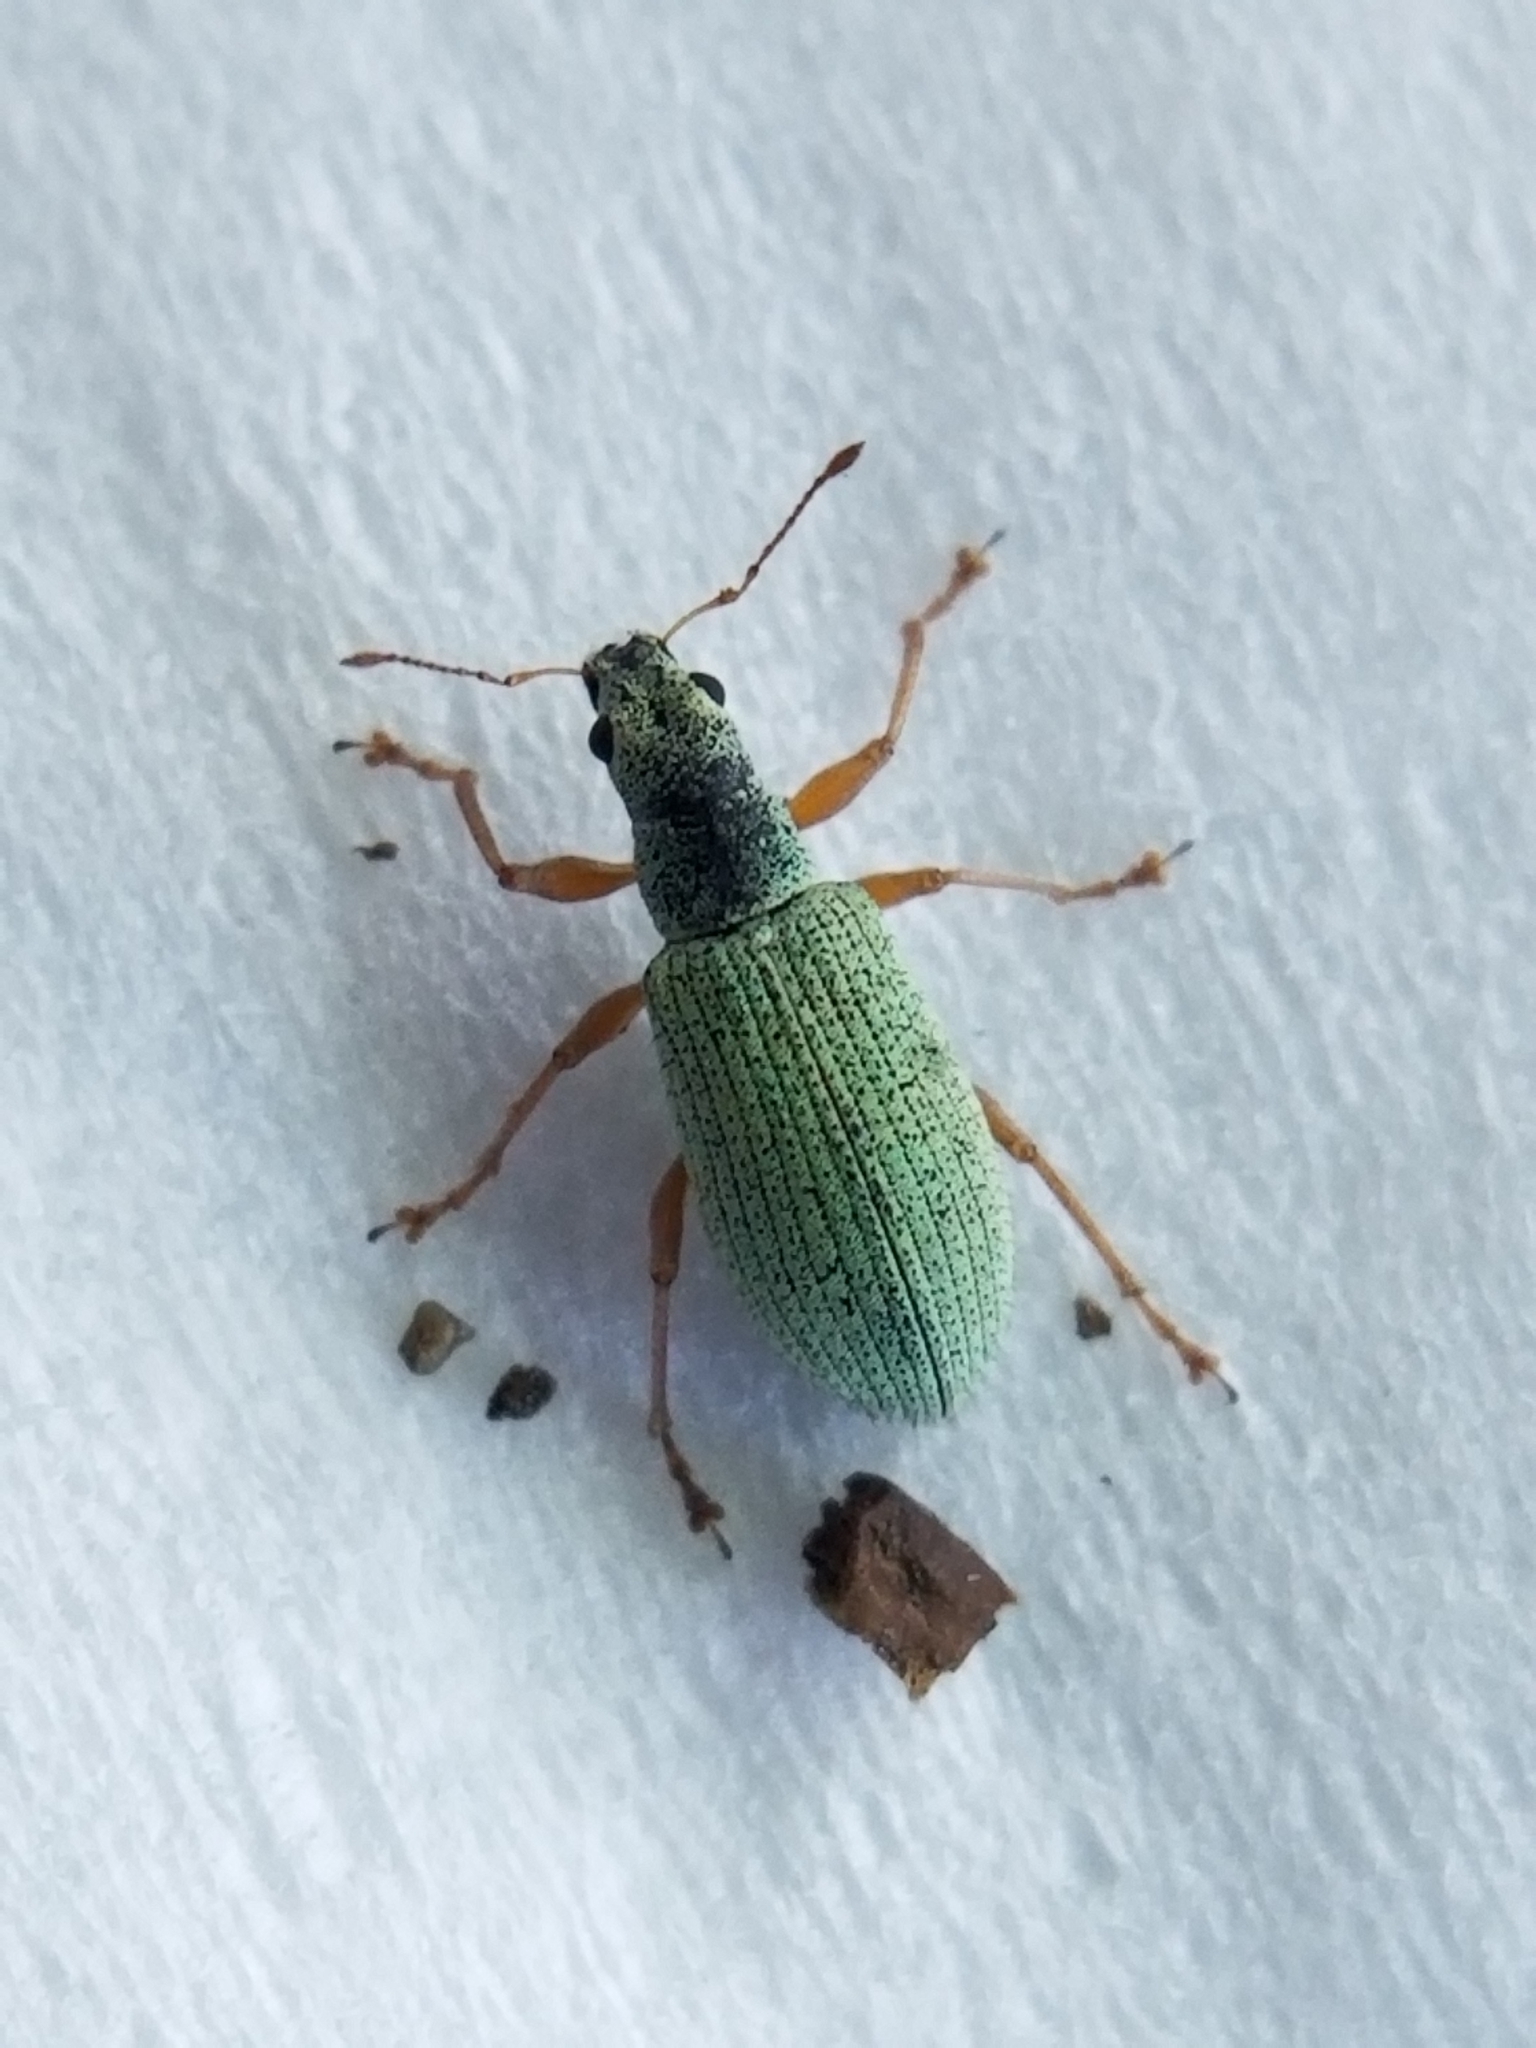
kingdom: Animalia
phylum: Arthropoda
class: Insecta
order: Coleoptera
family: Curculionidae
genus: Polydrusus
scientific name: Polydrusus impressifrons
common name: Weevil
